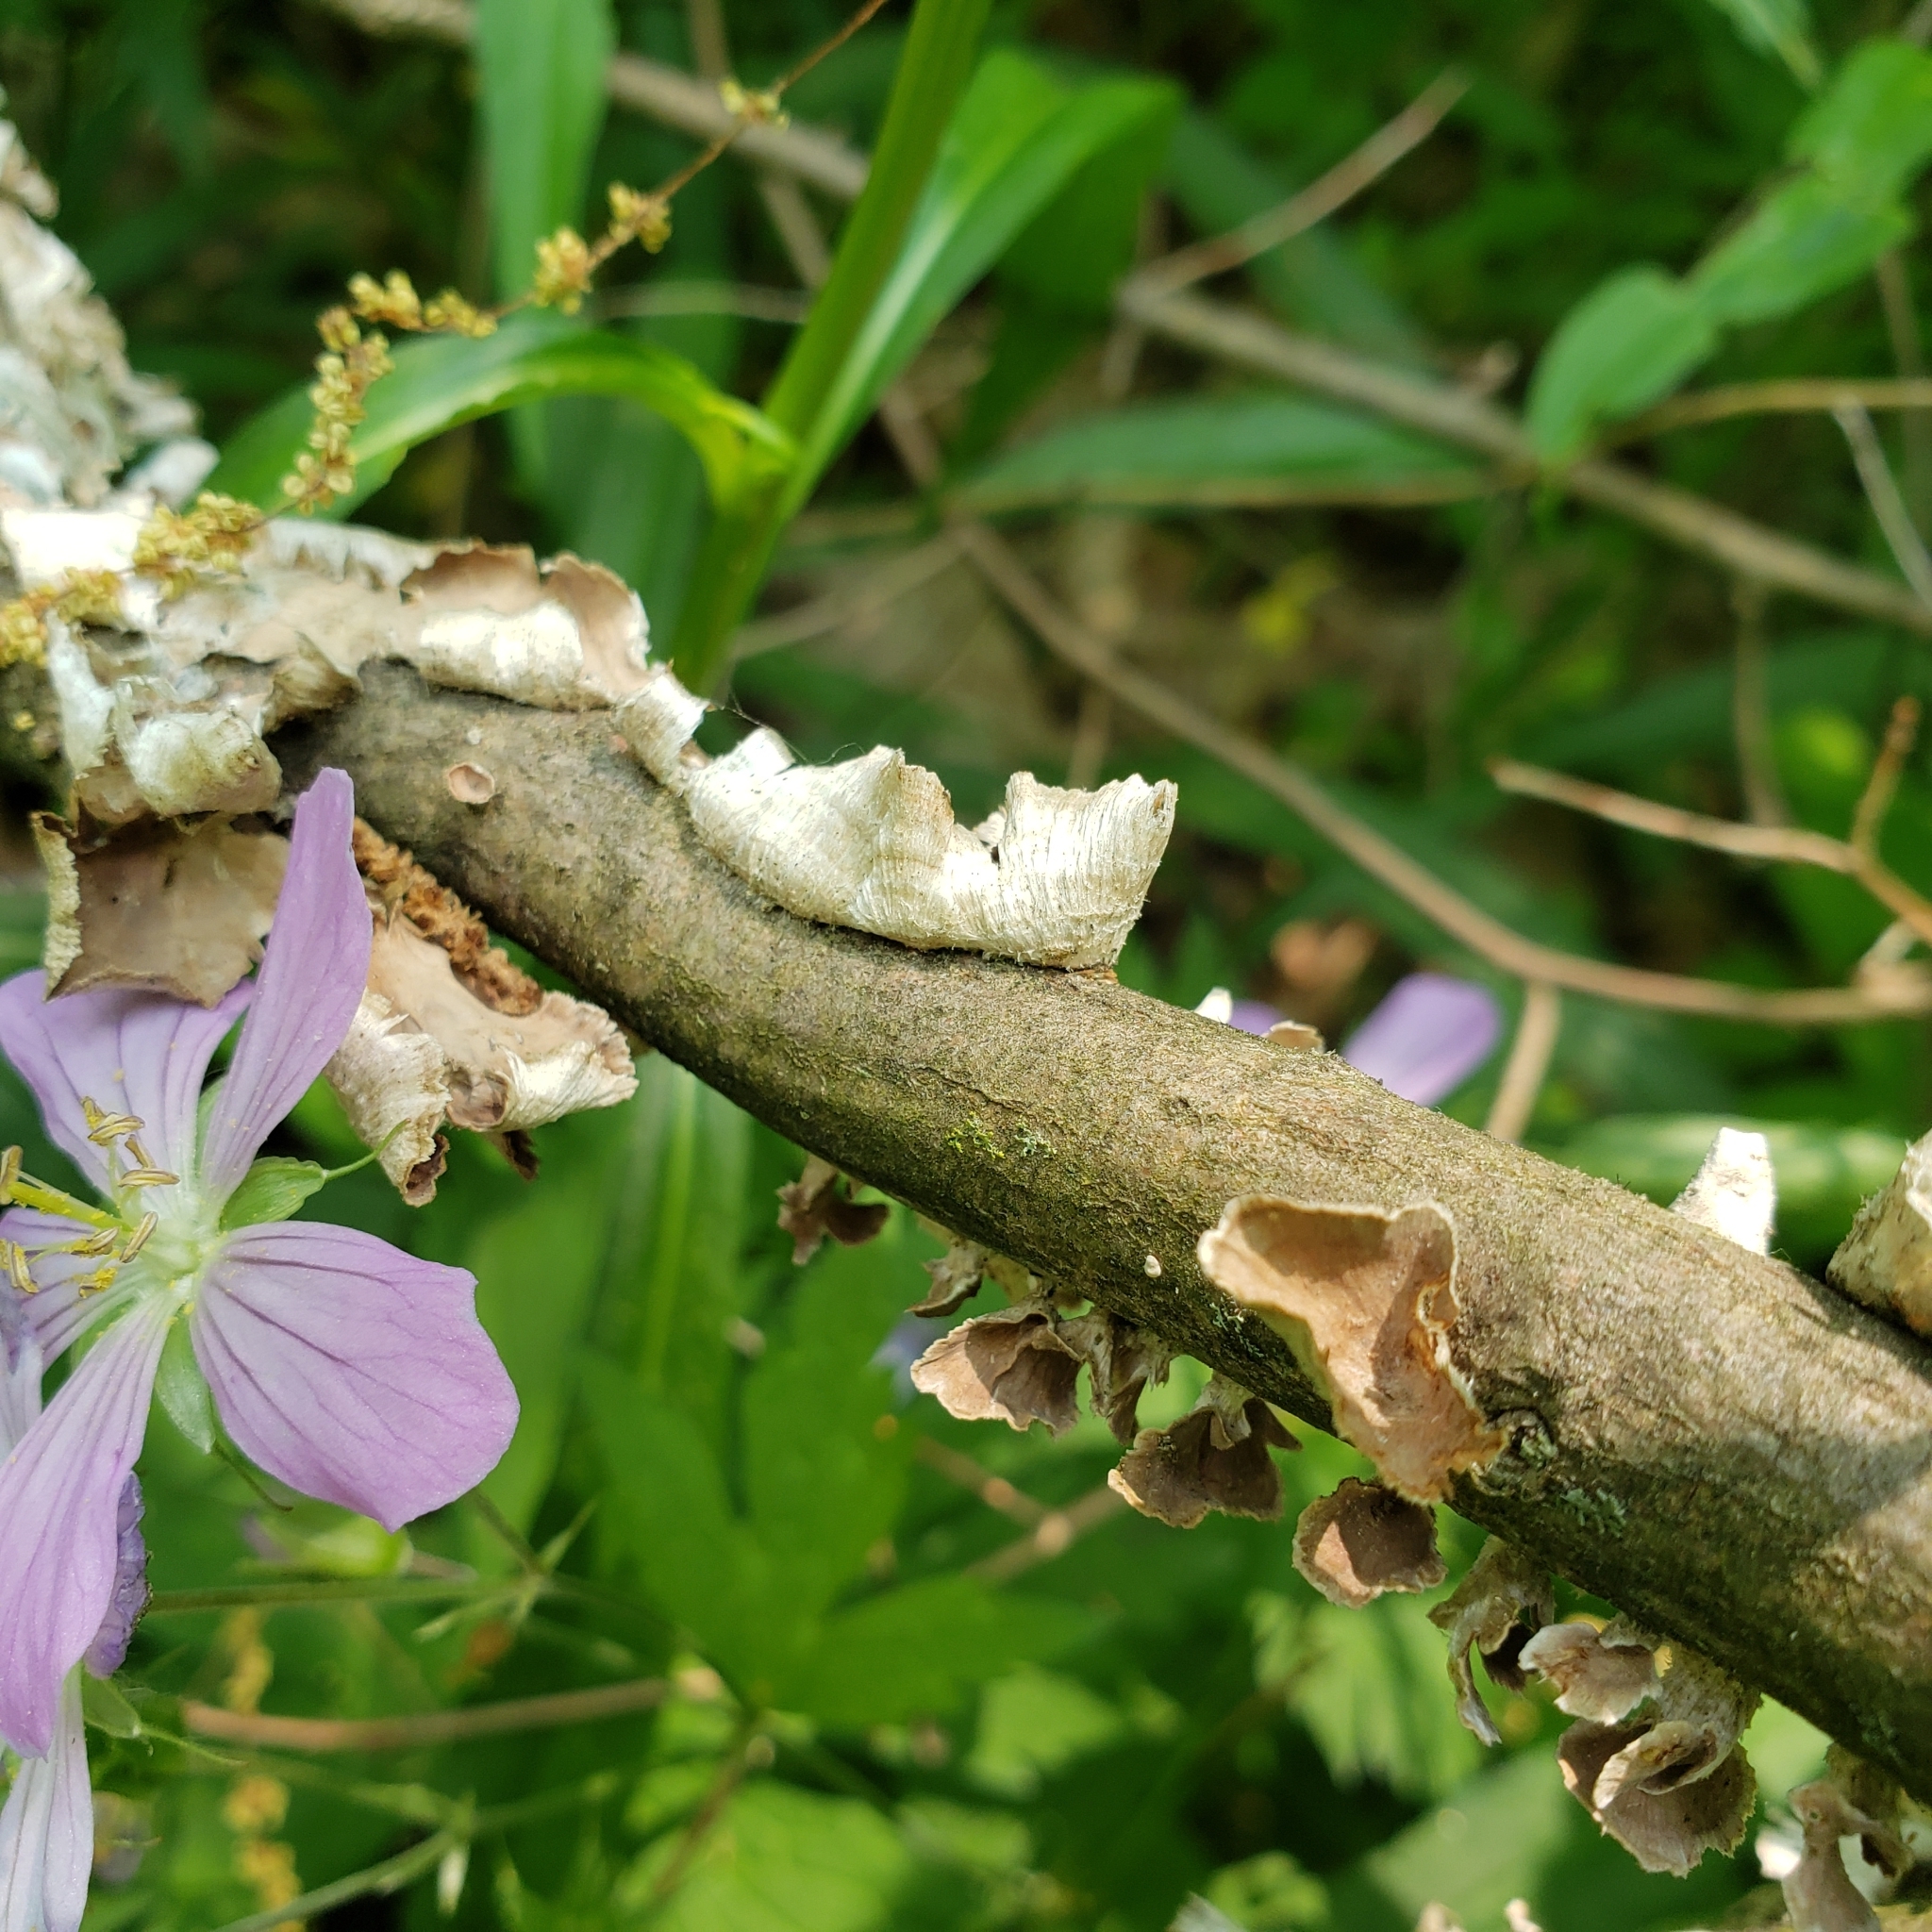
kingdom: Fungi
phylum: Basidiomycota
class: Agaricomycetes
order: Russulales
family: Stereaceae
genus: Stereum
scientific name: Stereum striatum
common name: Silky parchment
